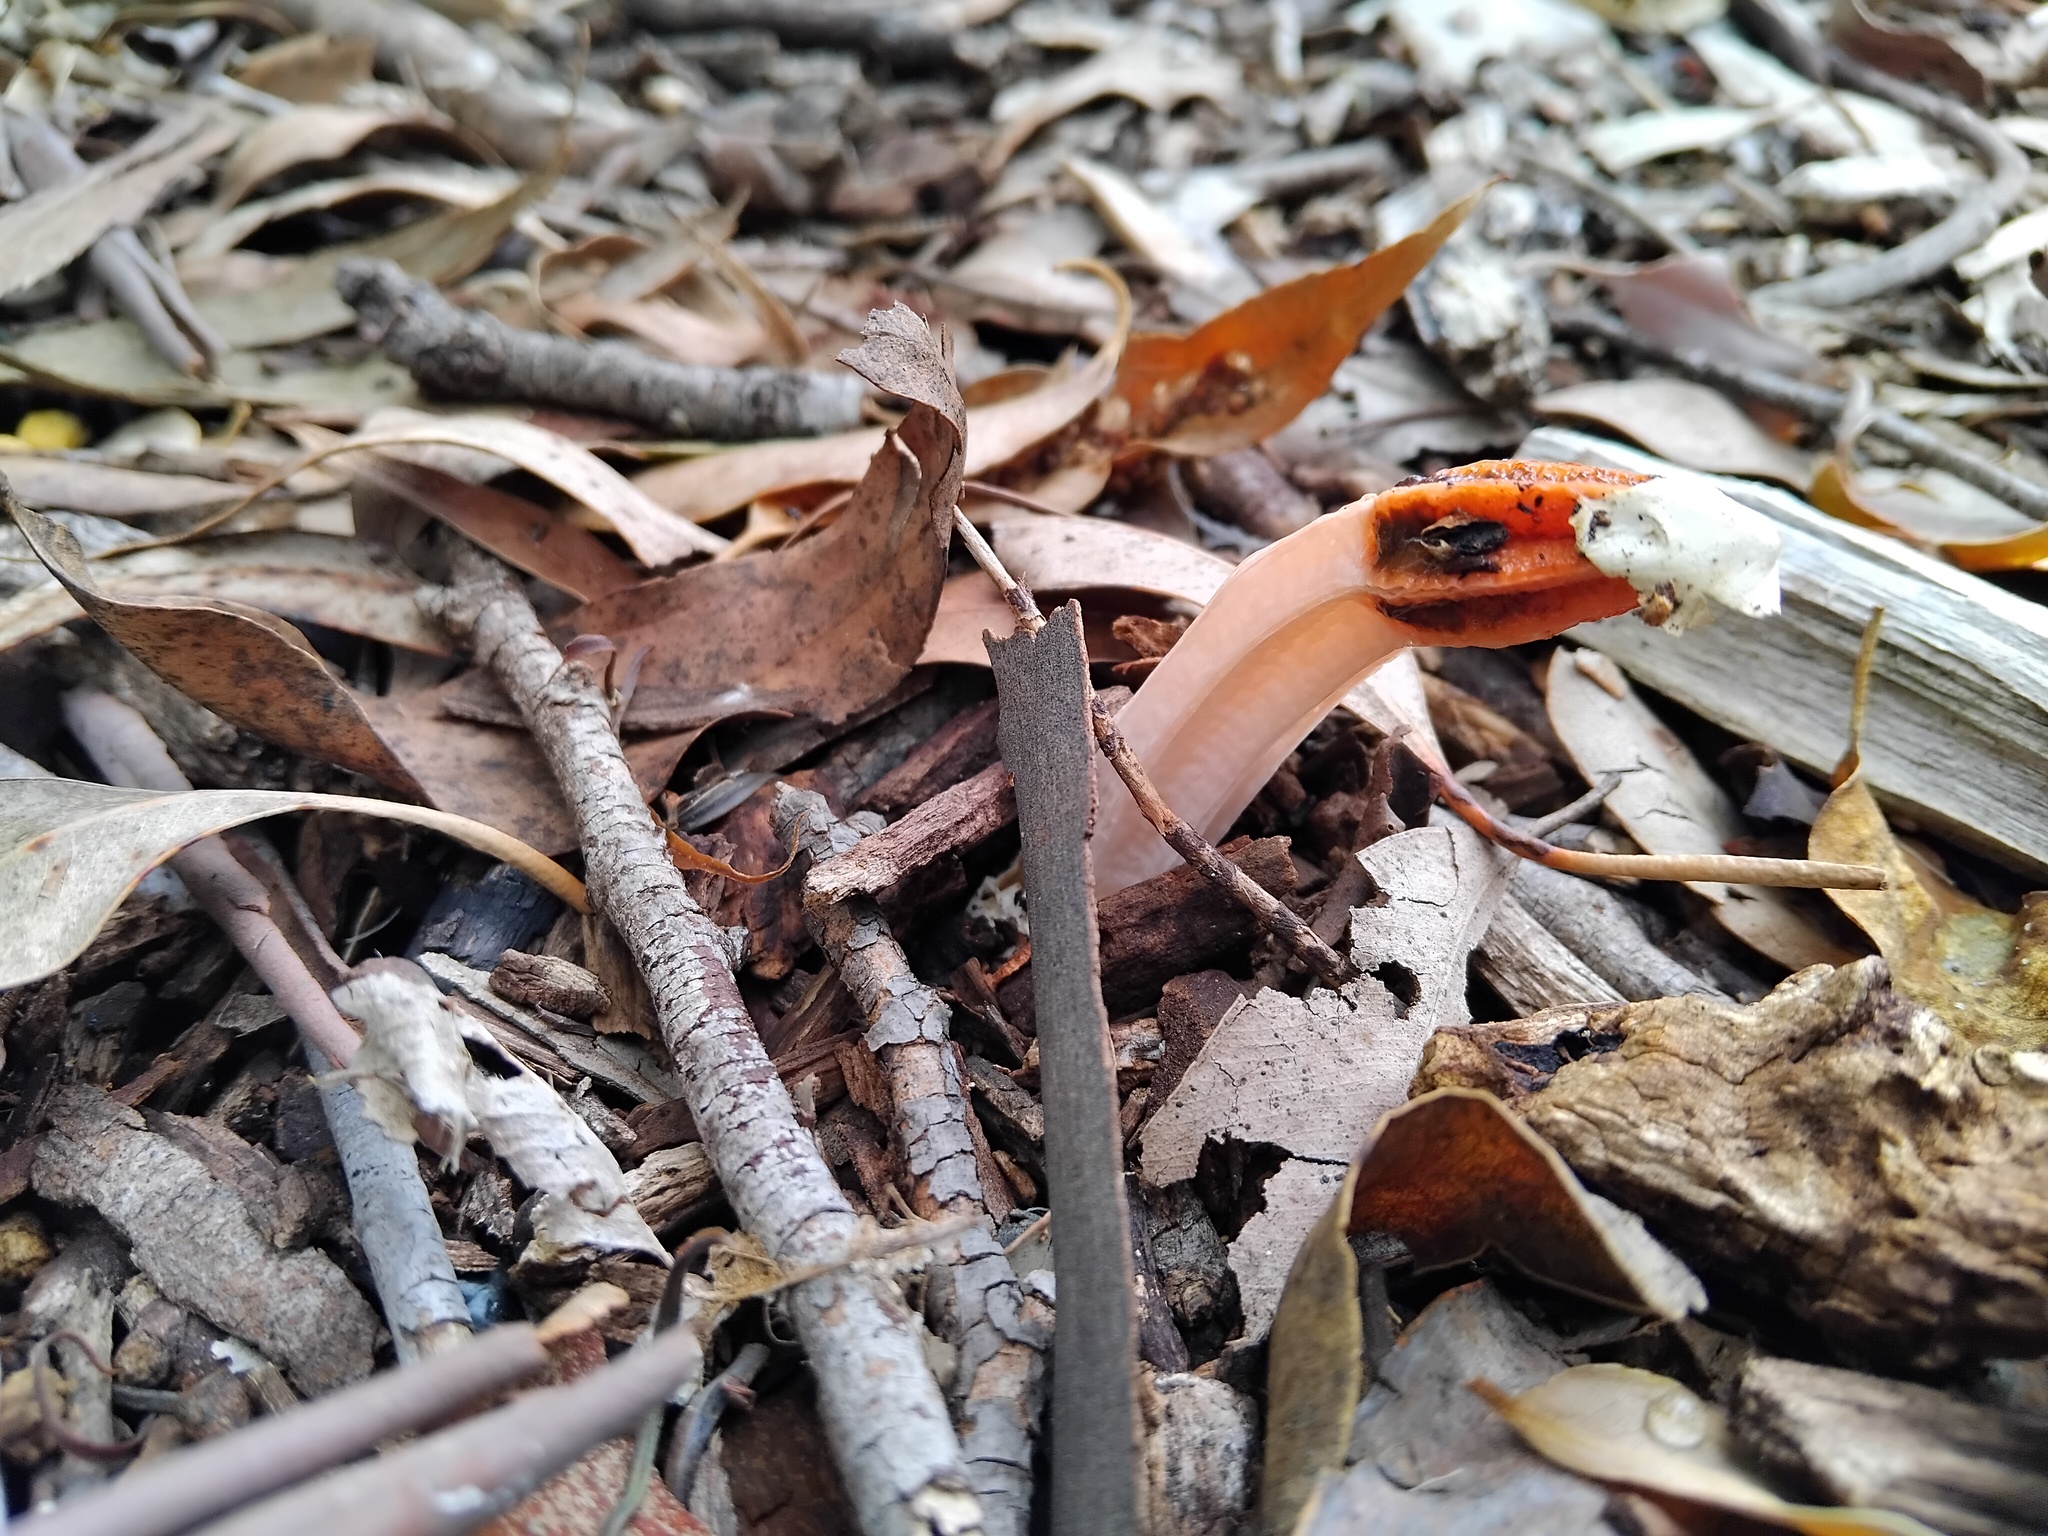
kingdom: Fungi
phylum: Basidiomycota
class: Agaricomycetes
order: Phallales
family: Phallaceae
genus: Lysurus
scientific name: Lysurus mokusin
